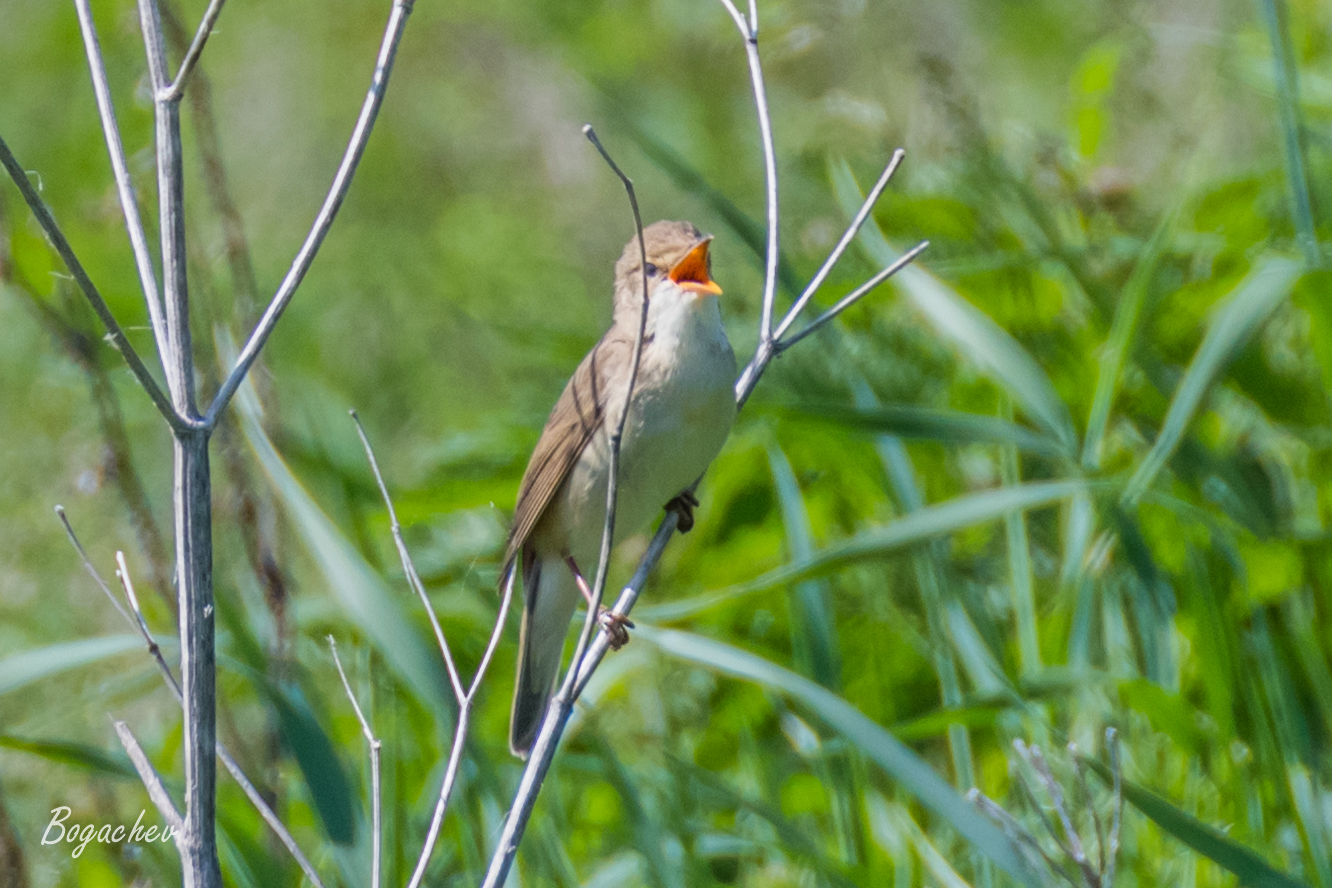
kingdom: Animalia
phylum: Chordata
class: Aves
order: Passeriformes
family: Acrocephalidae
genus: Acrocephalus
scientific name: Acrocephalus palustris
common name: Marsh warbler
